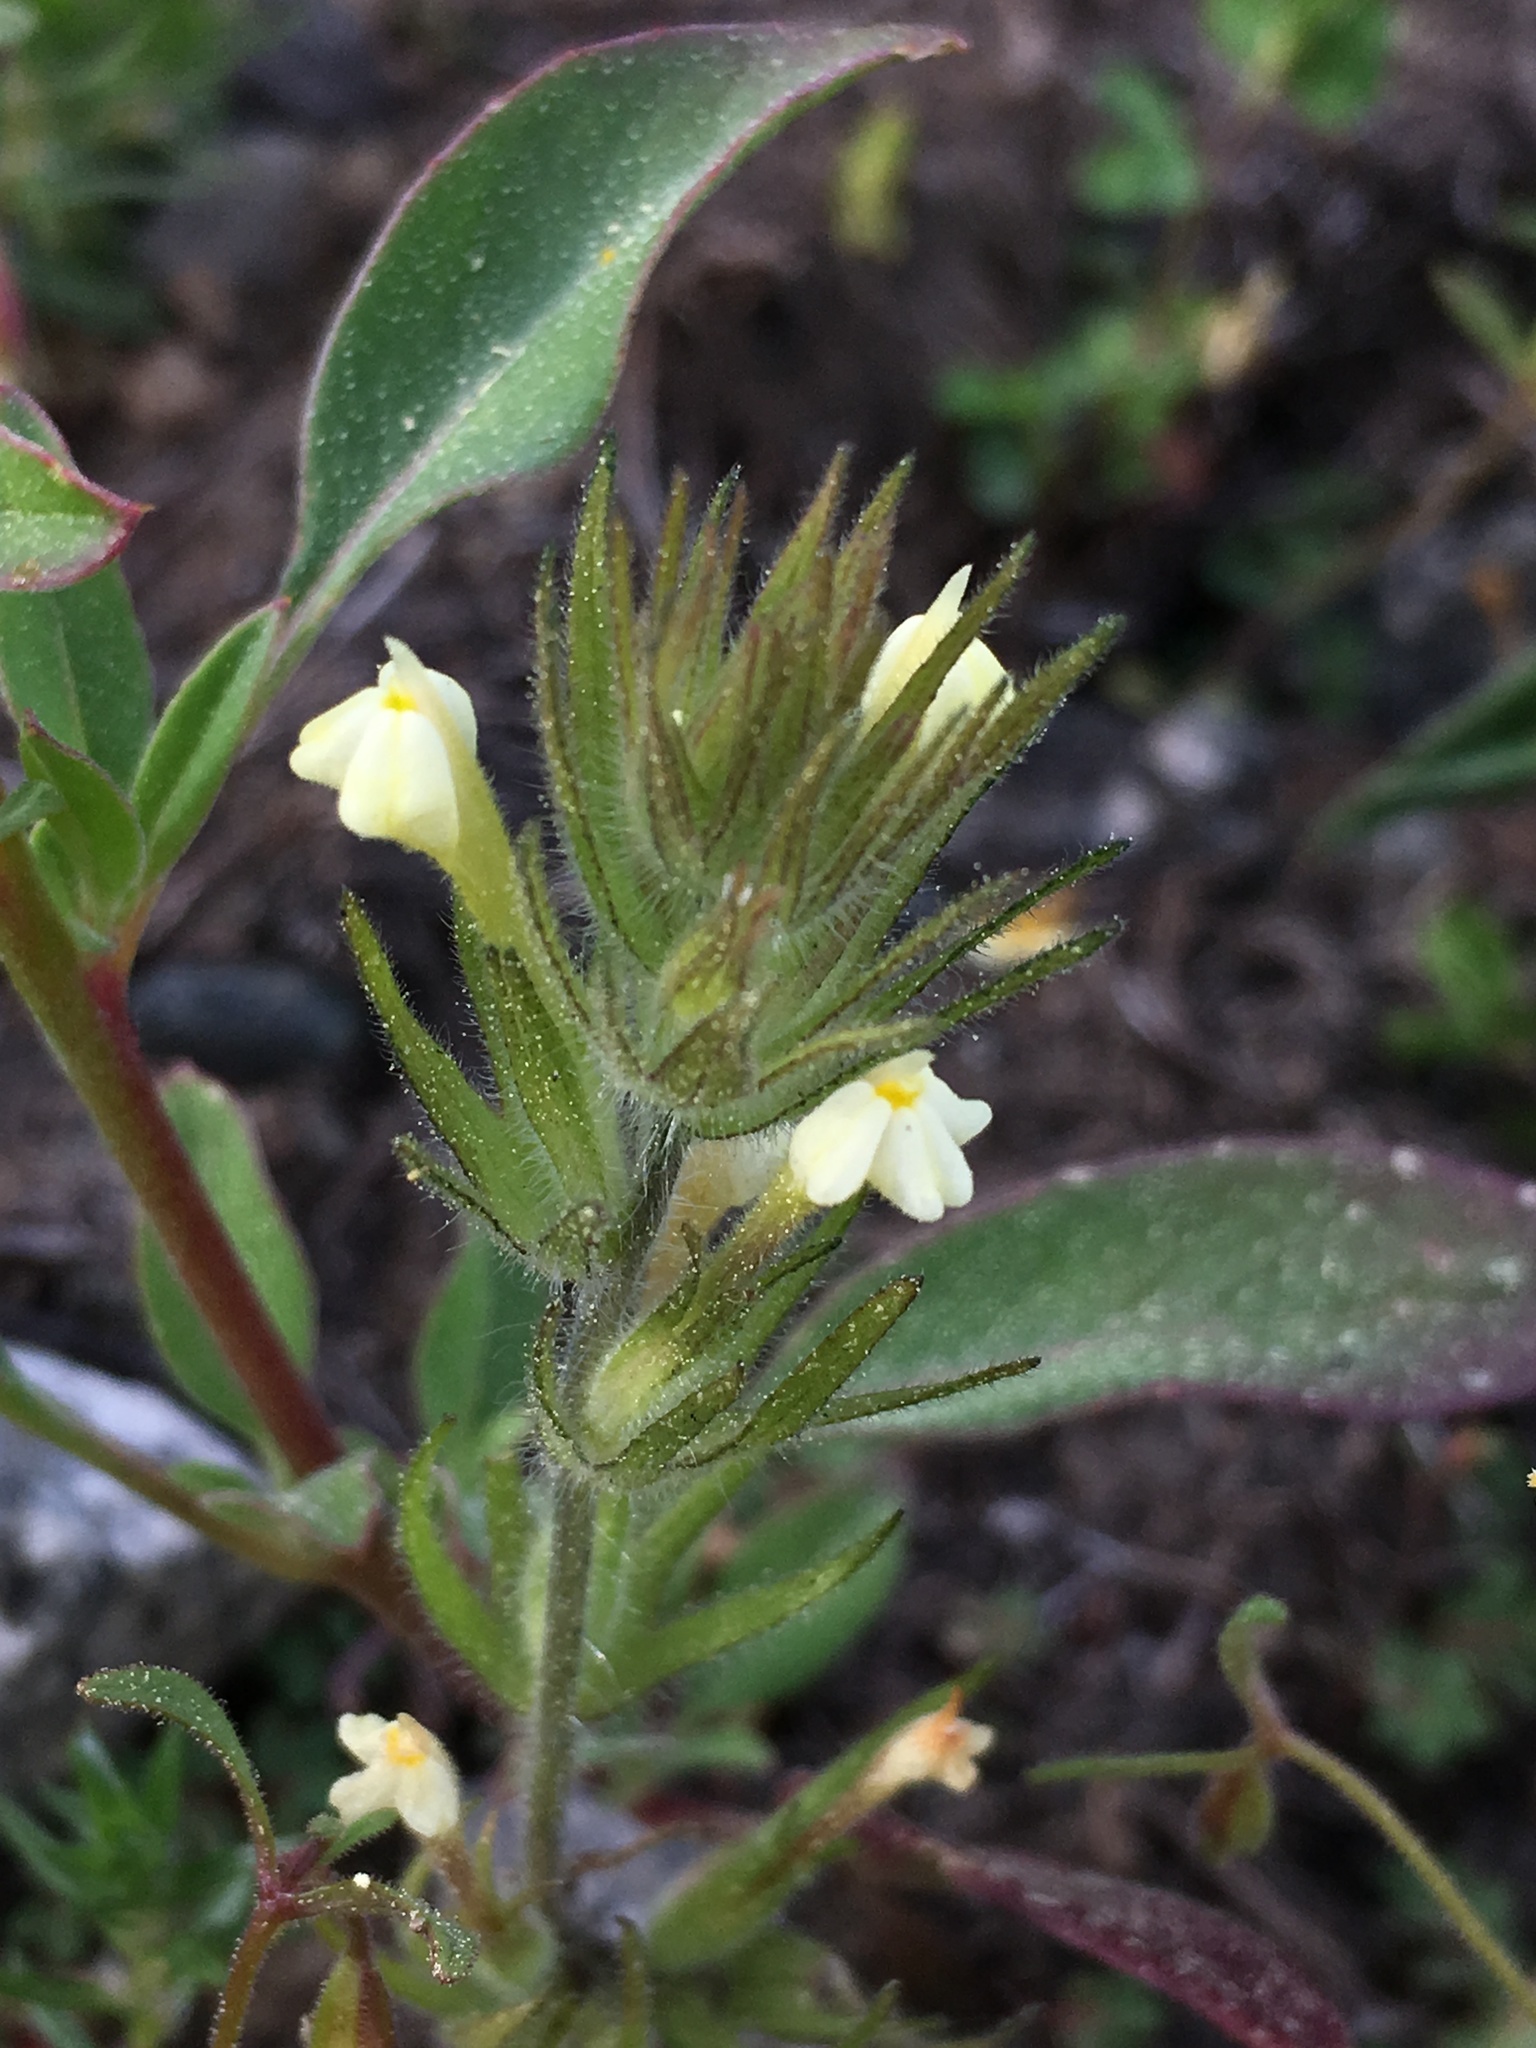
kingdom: Plantae
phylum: Tracheophyta
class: Magnoliopsida
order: Lamiales
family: Orobanchaceae
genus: Castilleja
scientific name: Castilleja tenuis
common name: Hairy indian paintbrush
